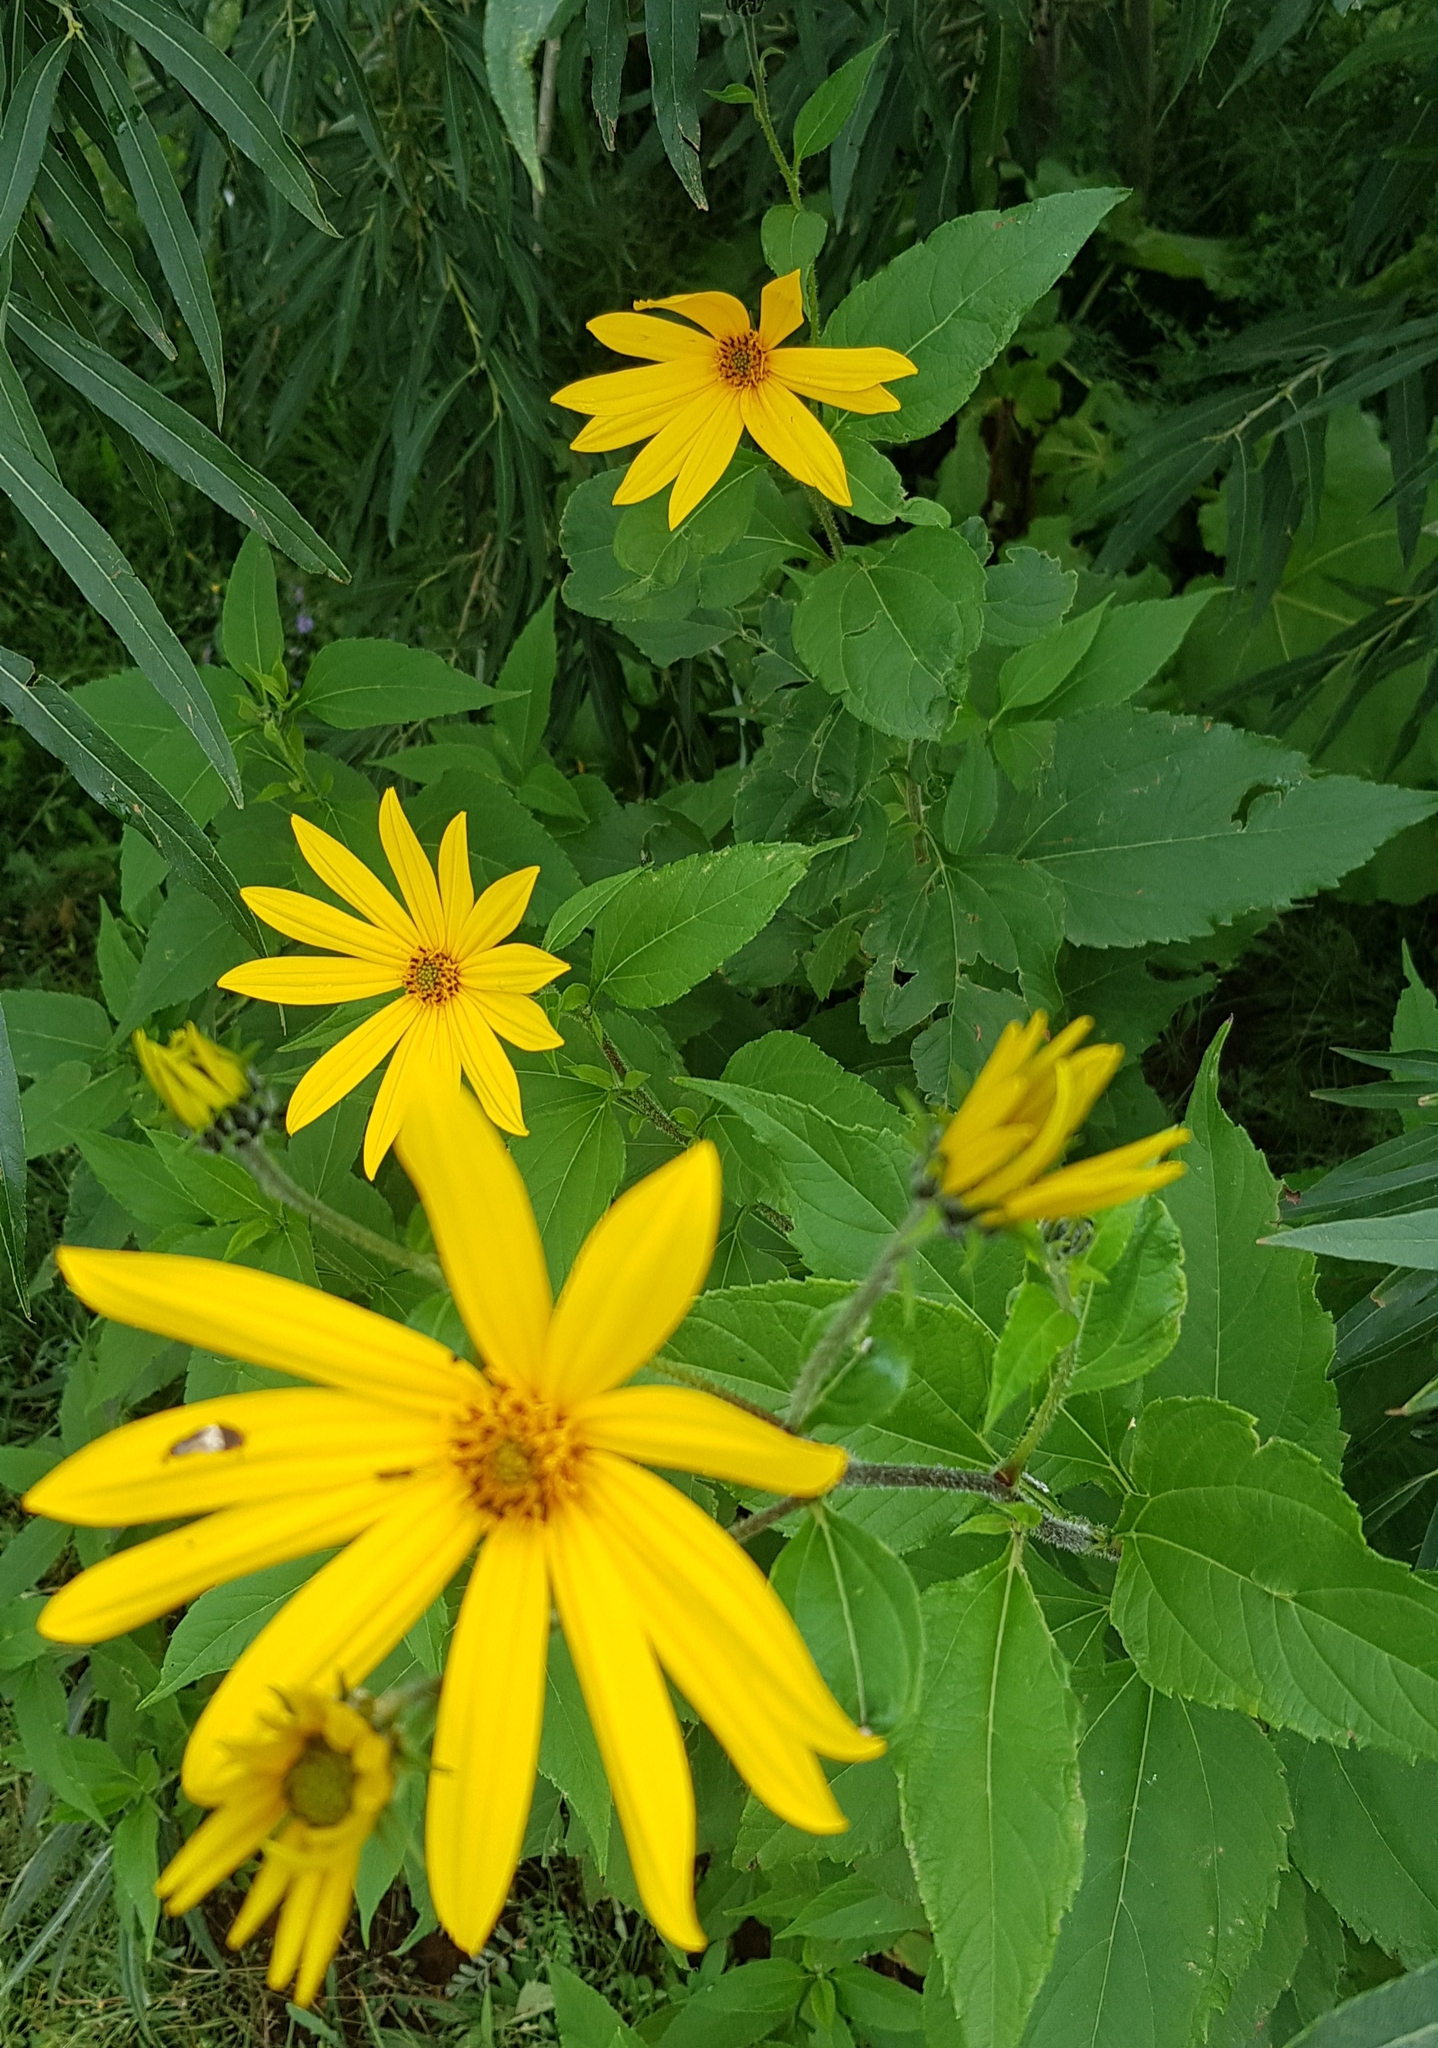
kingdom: Plantae
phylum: Tracheophyta
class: Magnoliopsida
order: Asterales
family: Asteraceae
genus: Helianthus
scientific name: Helianthus tuberosus
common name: Jerusalem artichoke
